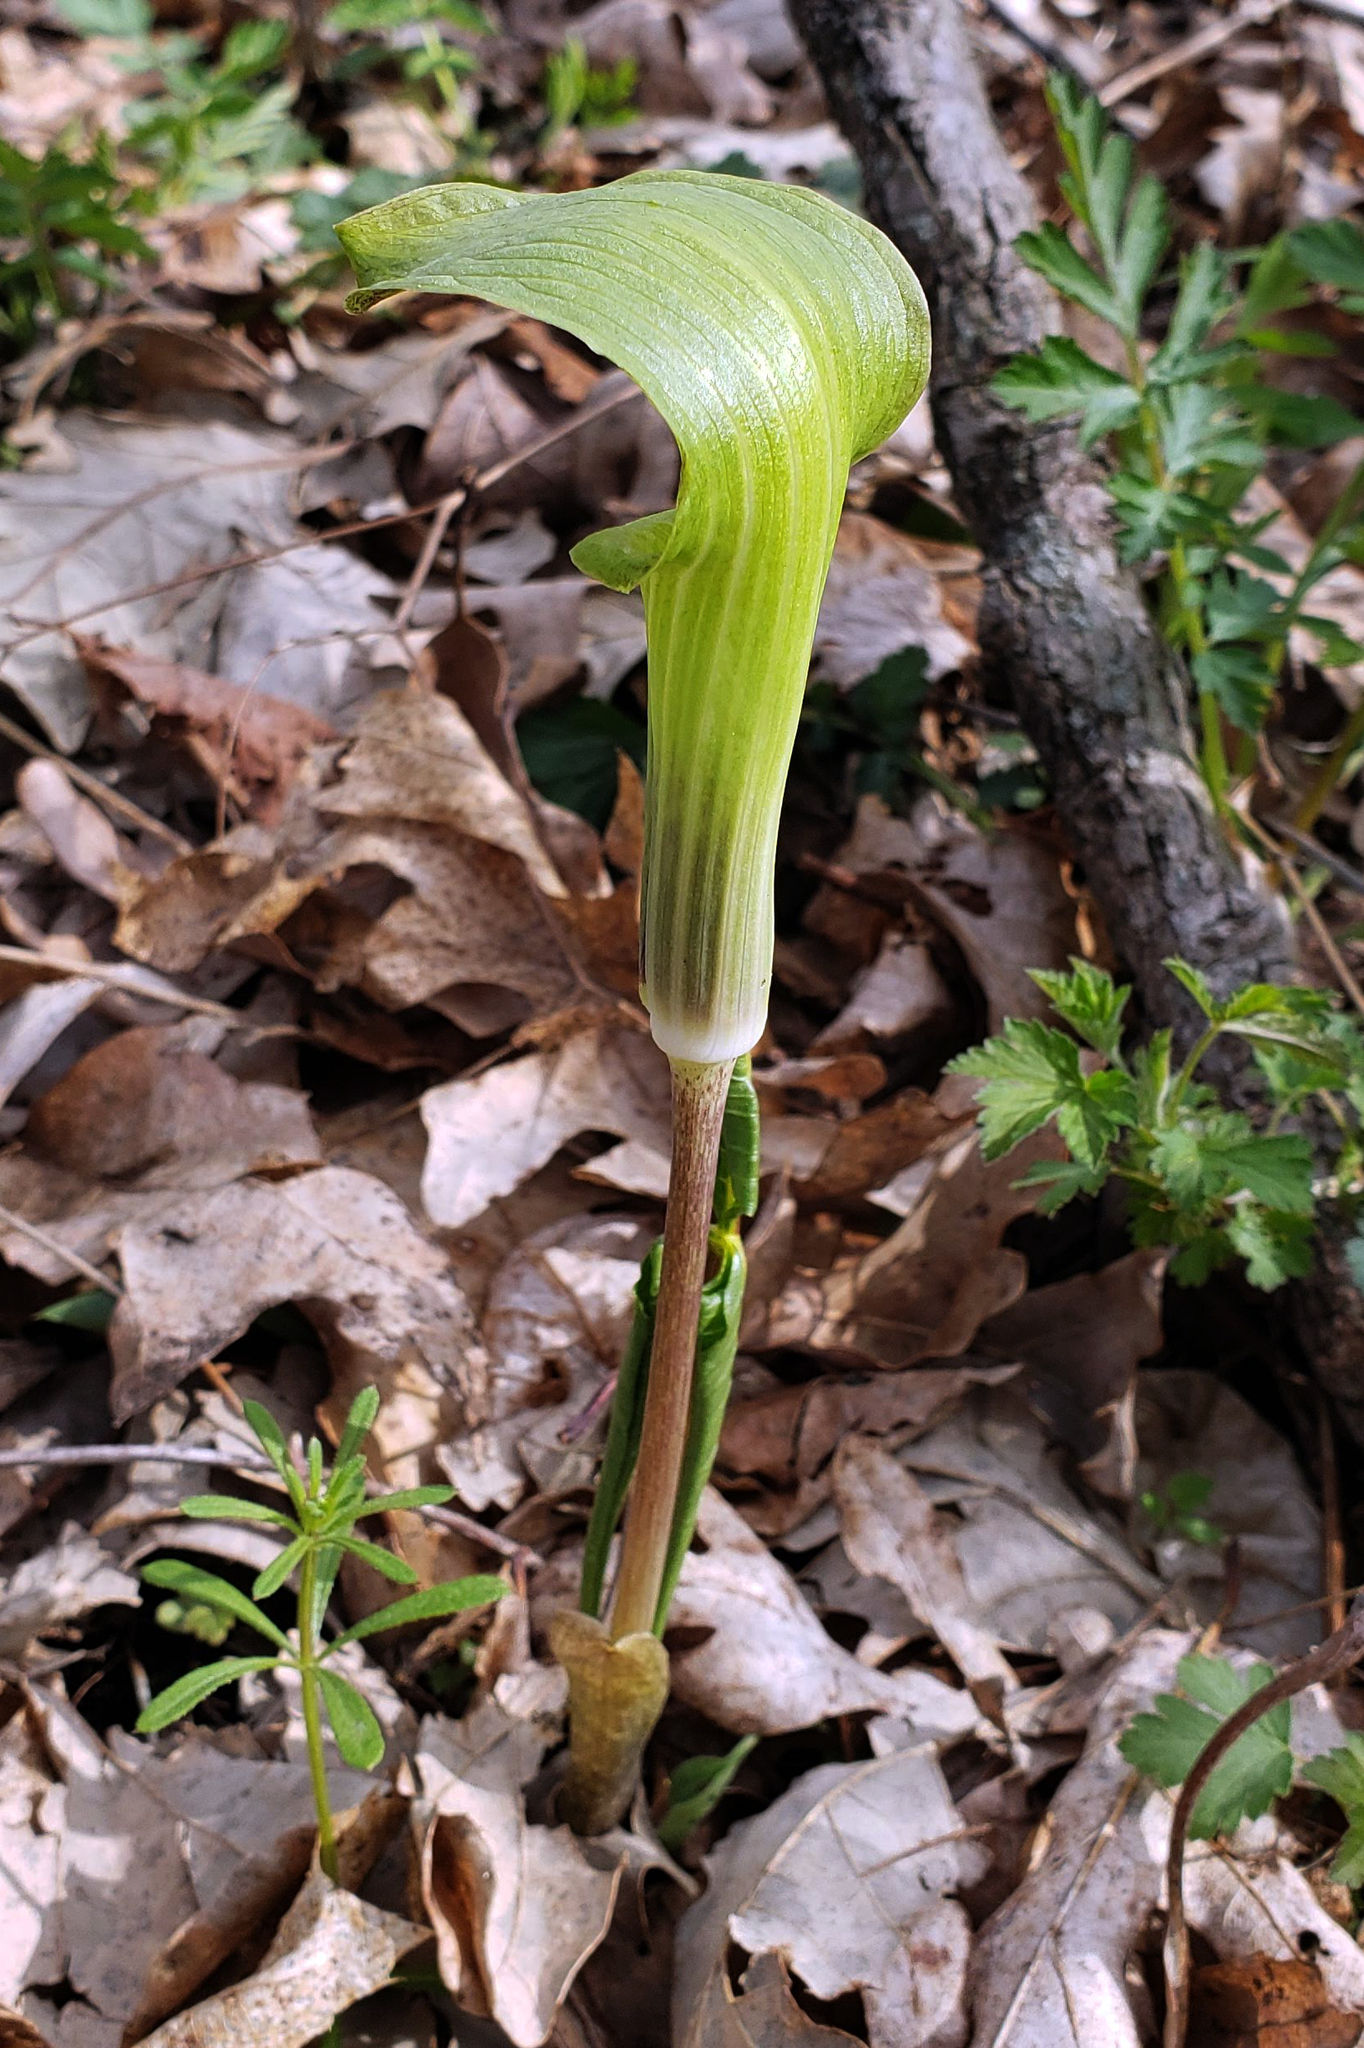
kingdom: Plantae
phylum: Tracheophyta
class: Liliopsida
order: Alismatales
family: Araceae
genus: Arisaema
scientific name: Arisaema triphyllum
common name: Jack-in-the-pulpit
